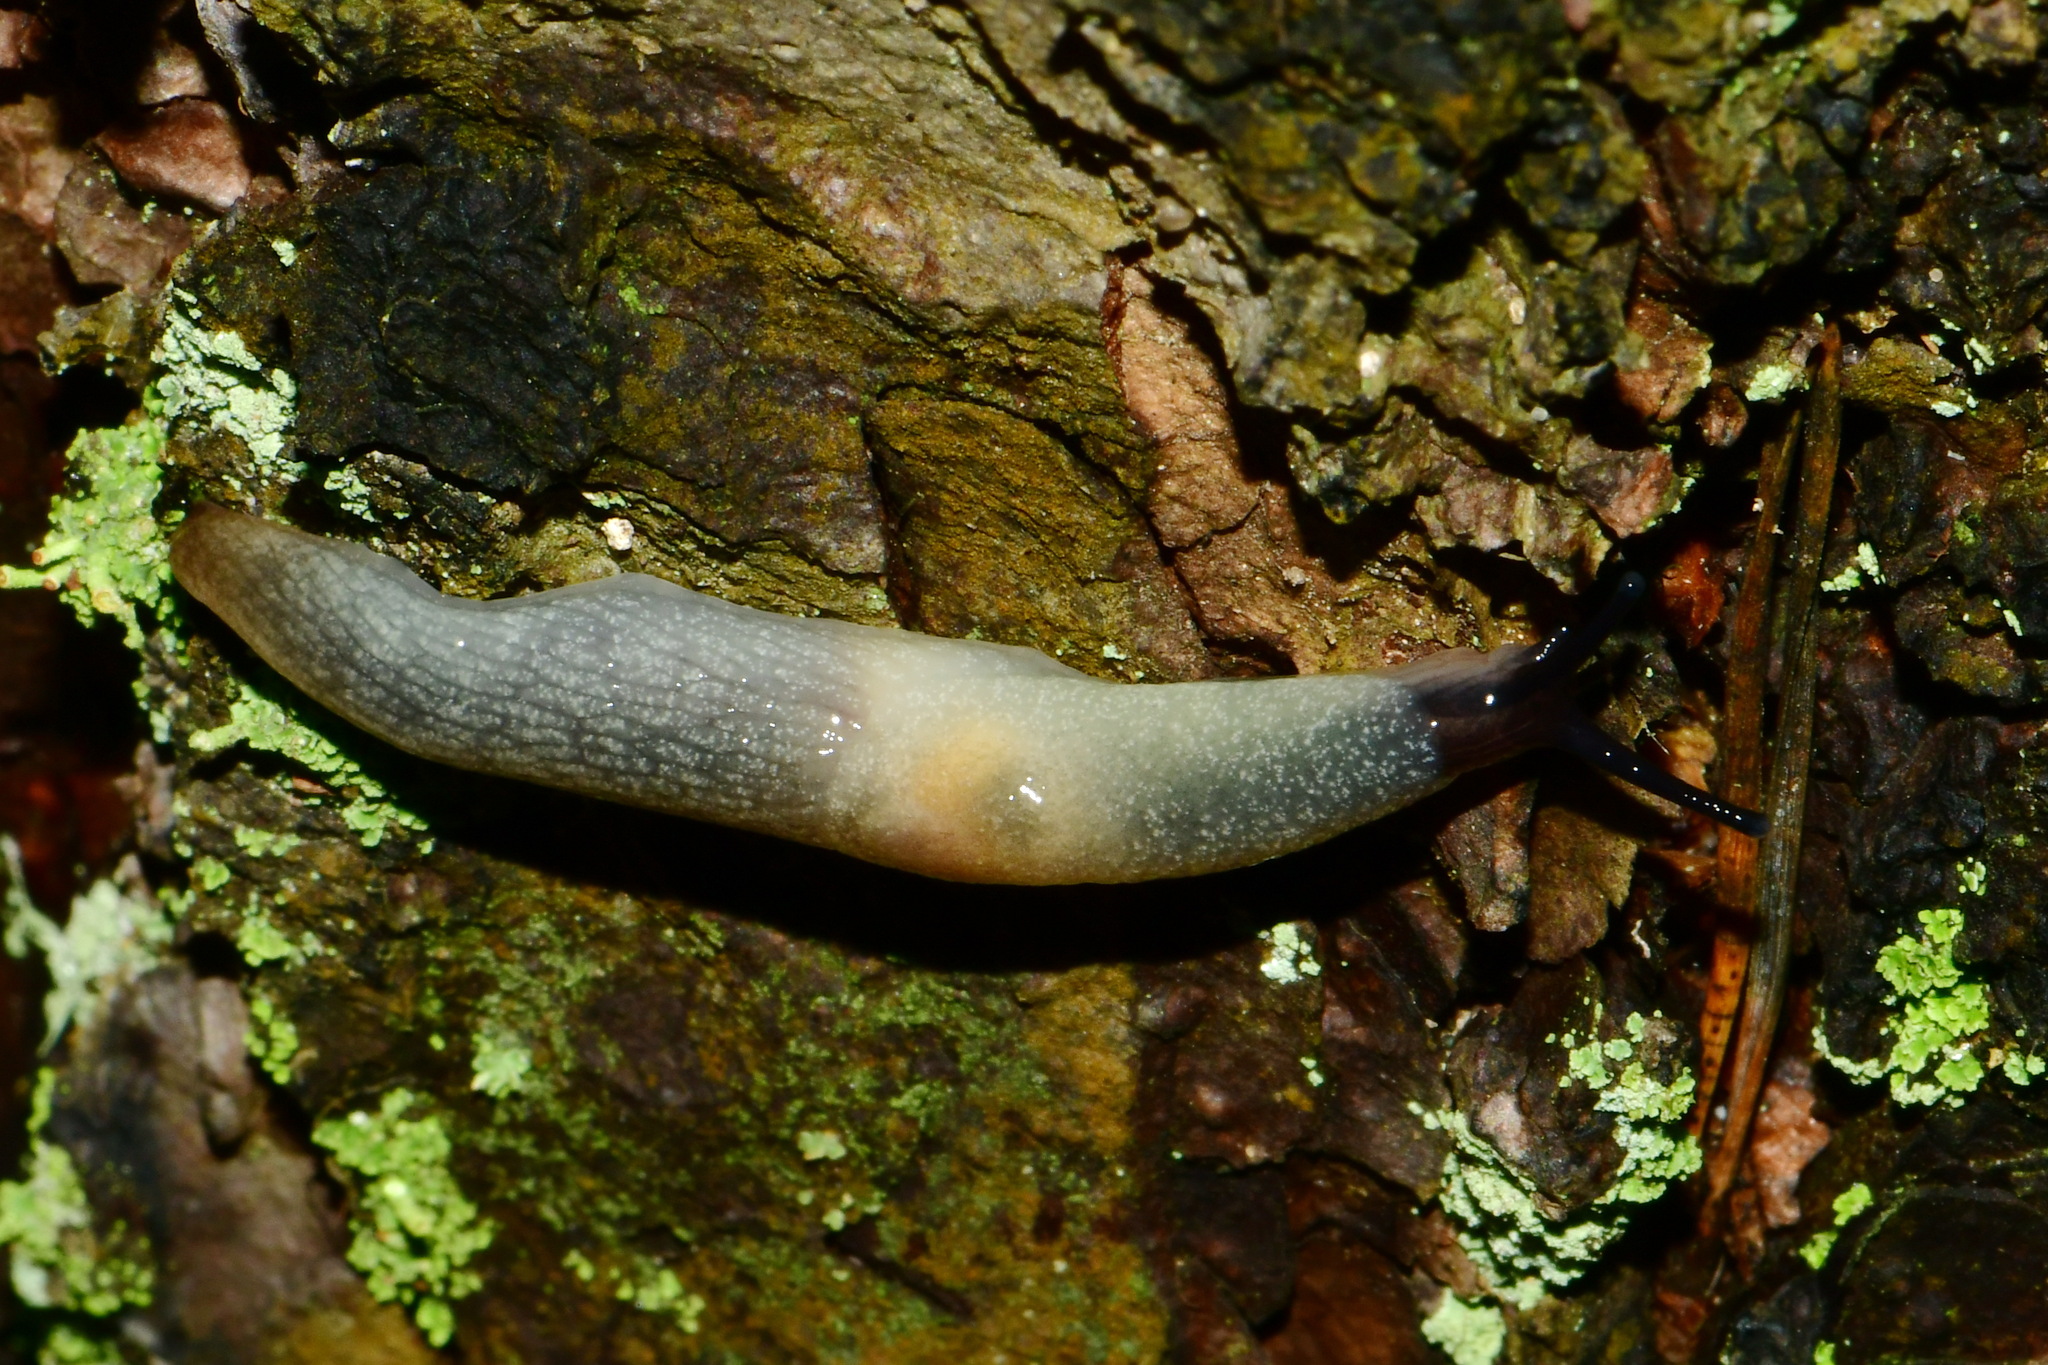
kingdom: Animalia
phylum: Mollusca
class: Gastropoda
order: Stylommatophora
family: Agriolimacidae
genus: Krynickillus
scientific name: Krynickillus melanocephalus
